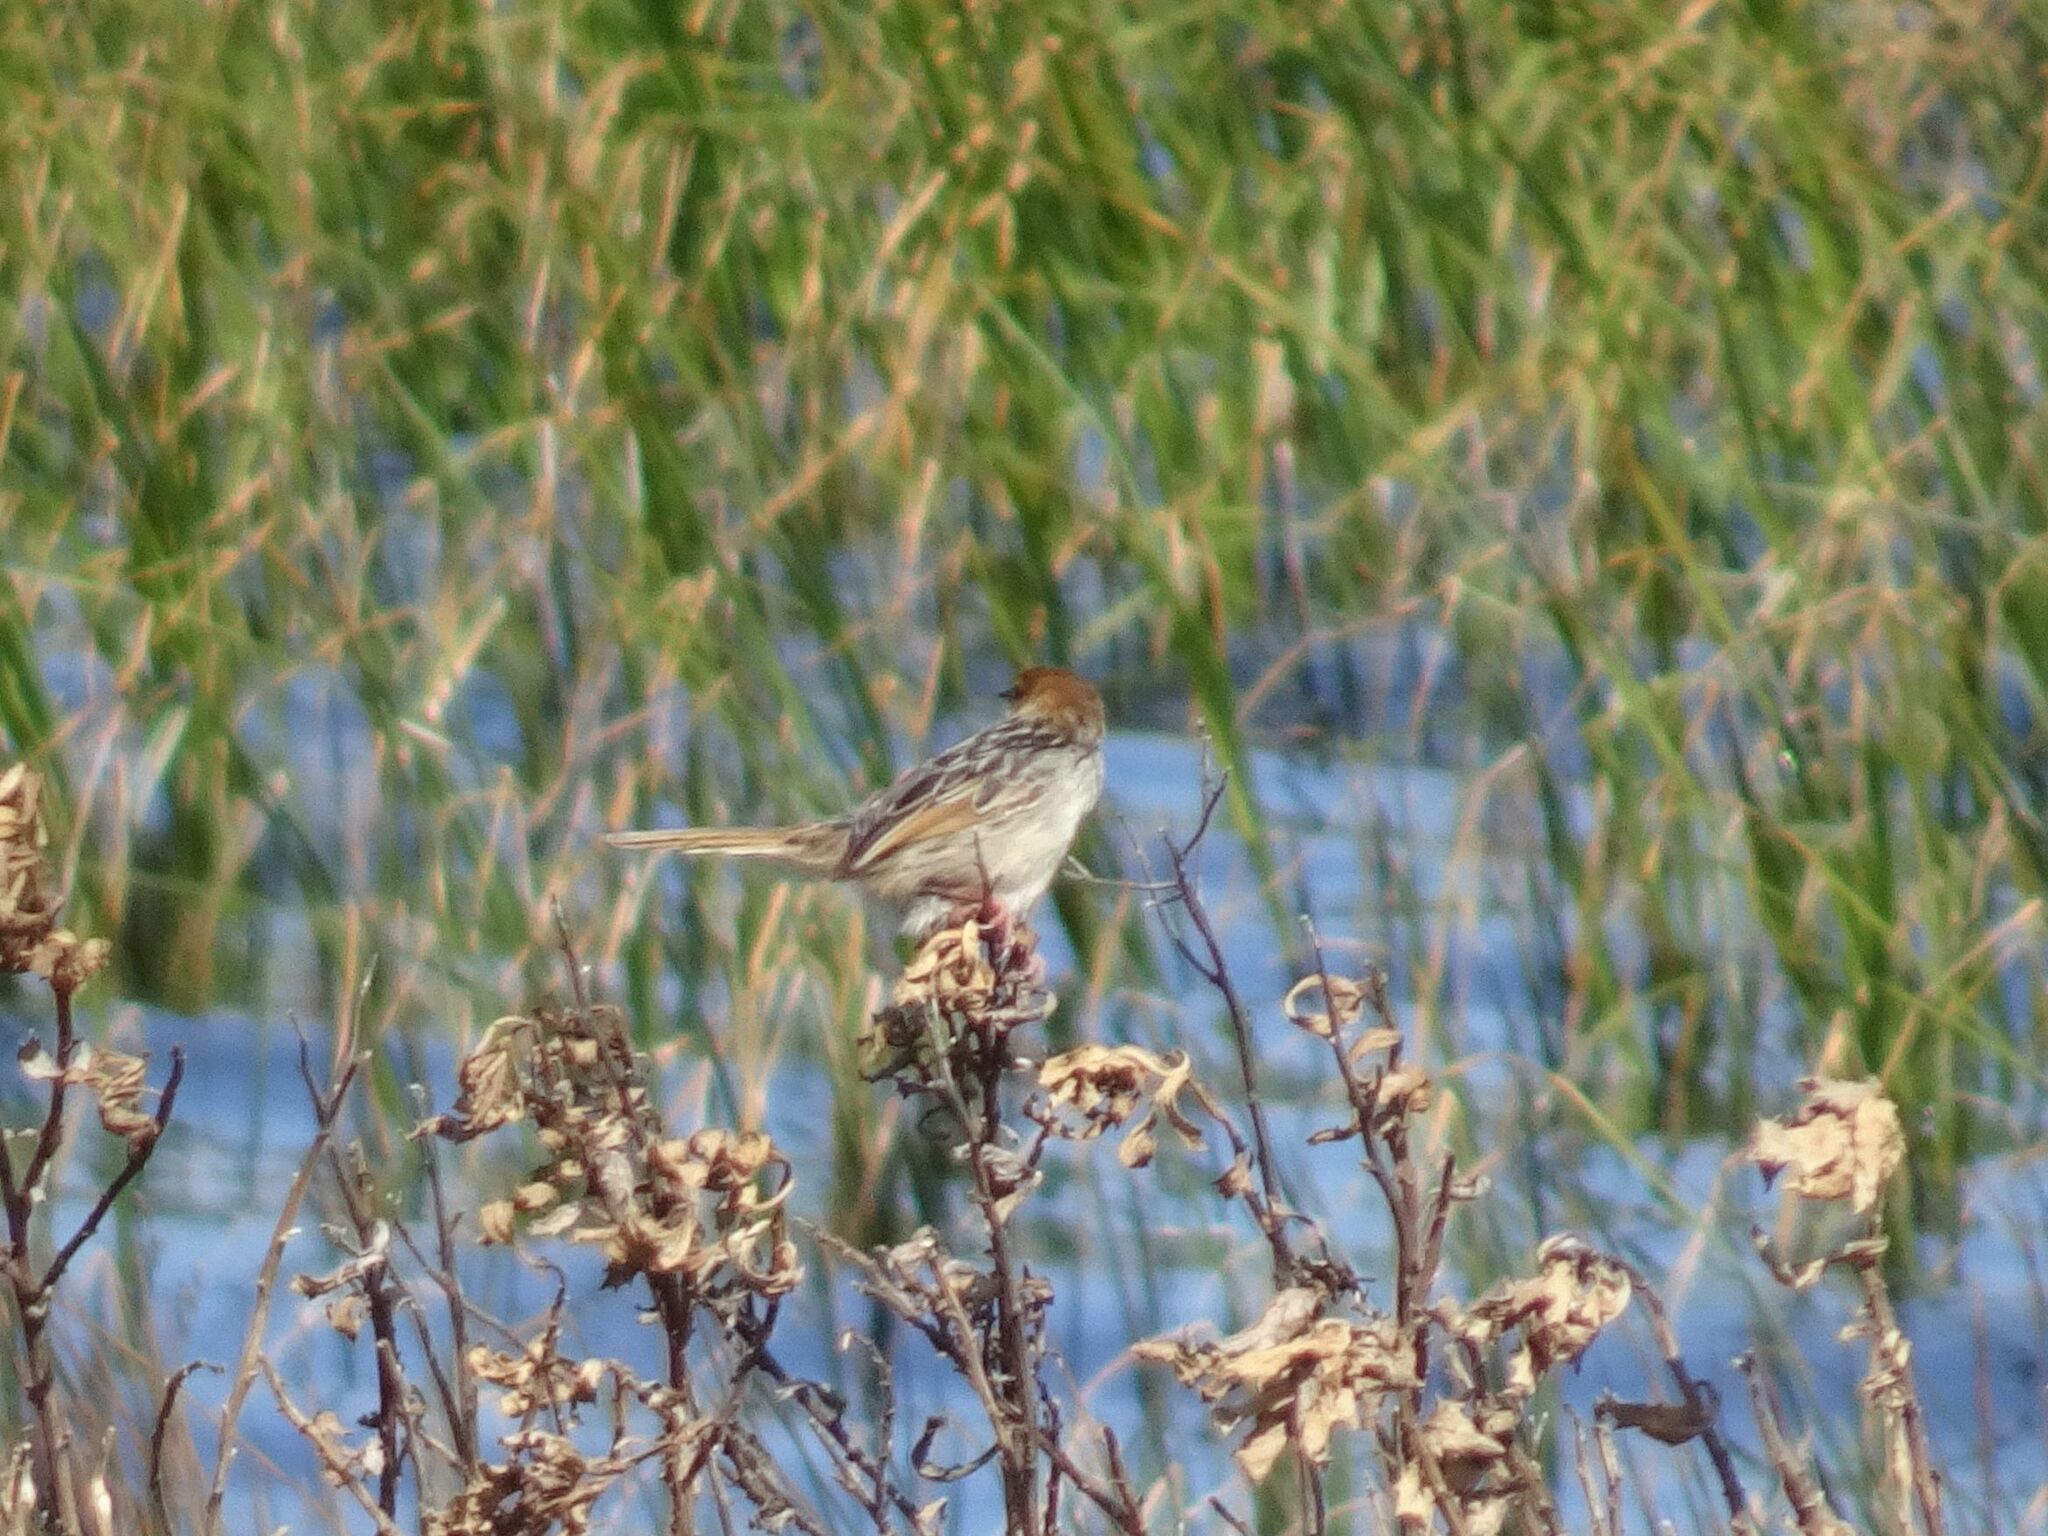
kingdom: Animalia
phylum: Chordata
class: Aves
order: Passeriformes
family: Cisticolidae
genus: Cisticola
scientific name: Cisticola tinniens
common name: Levaillant's cisticola
